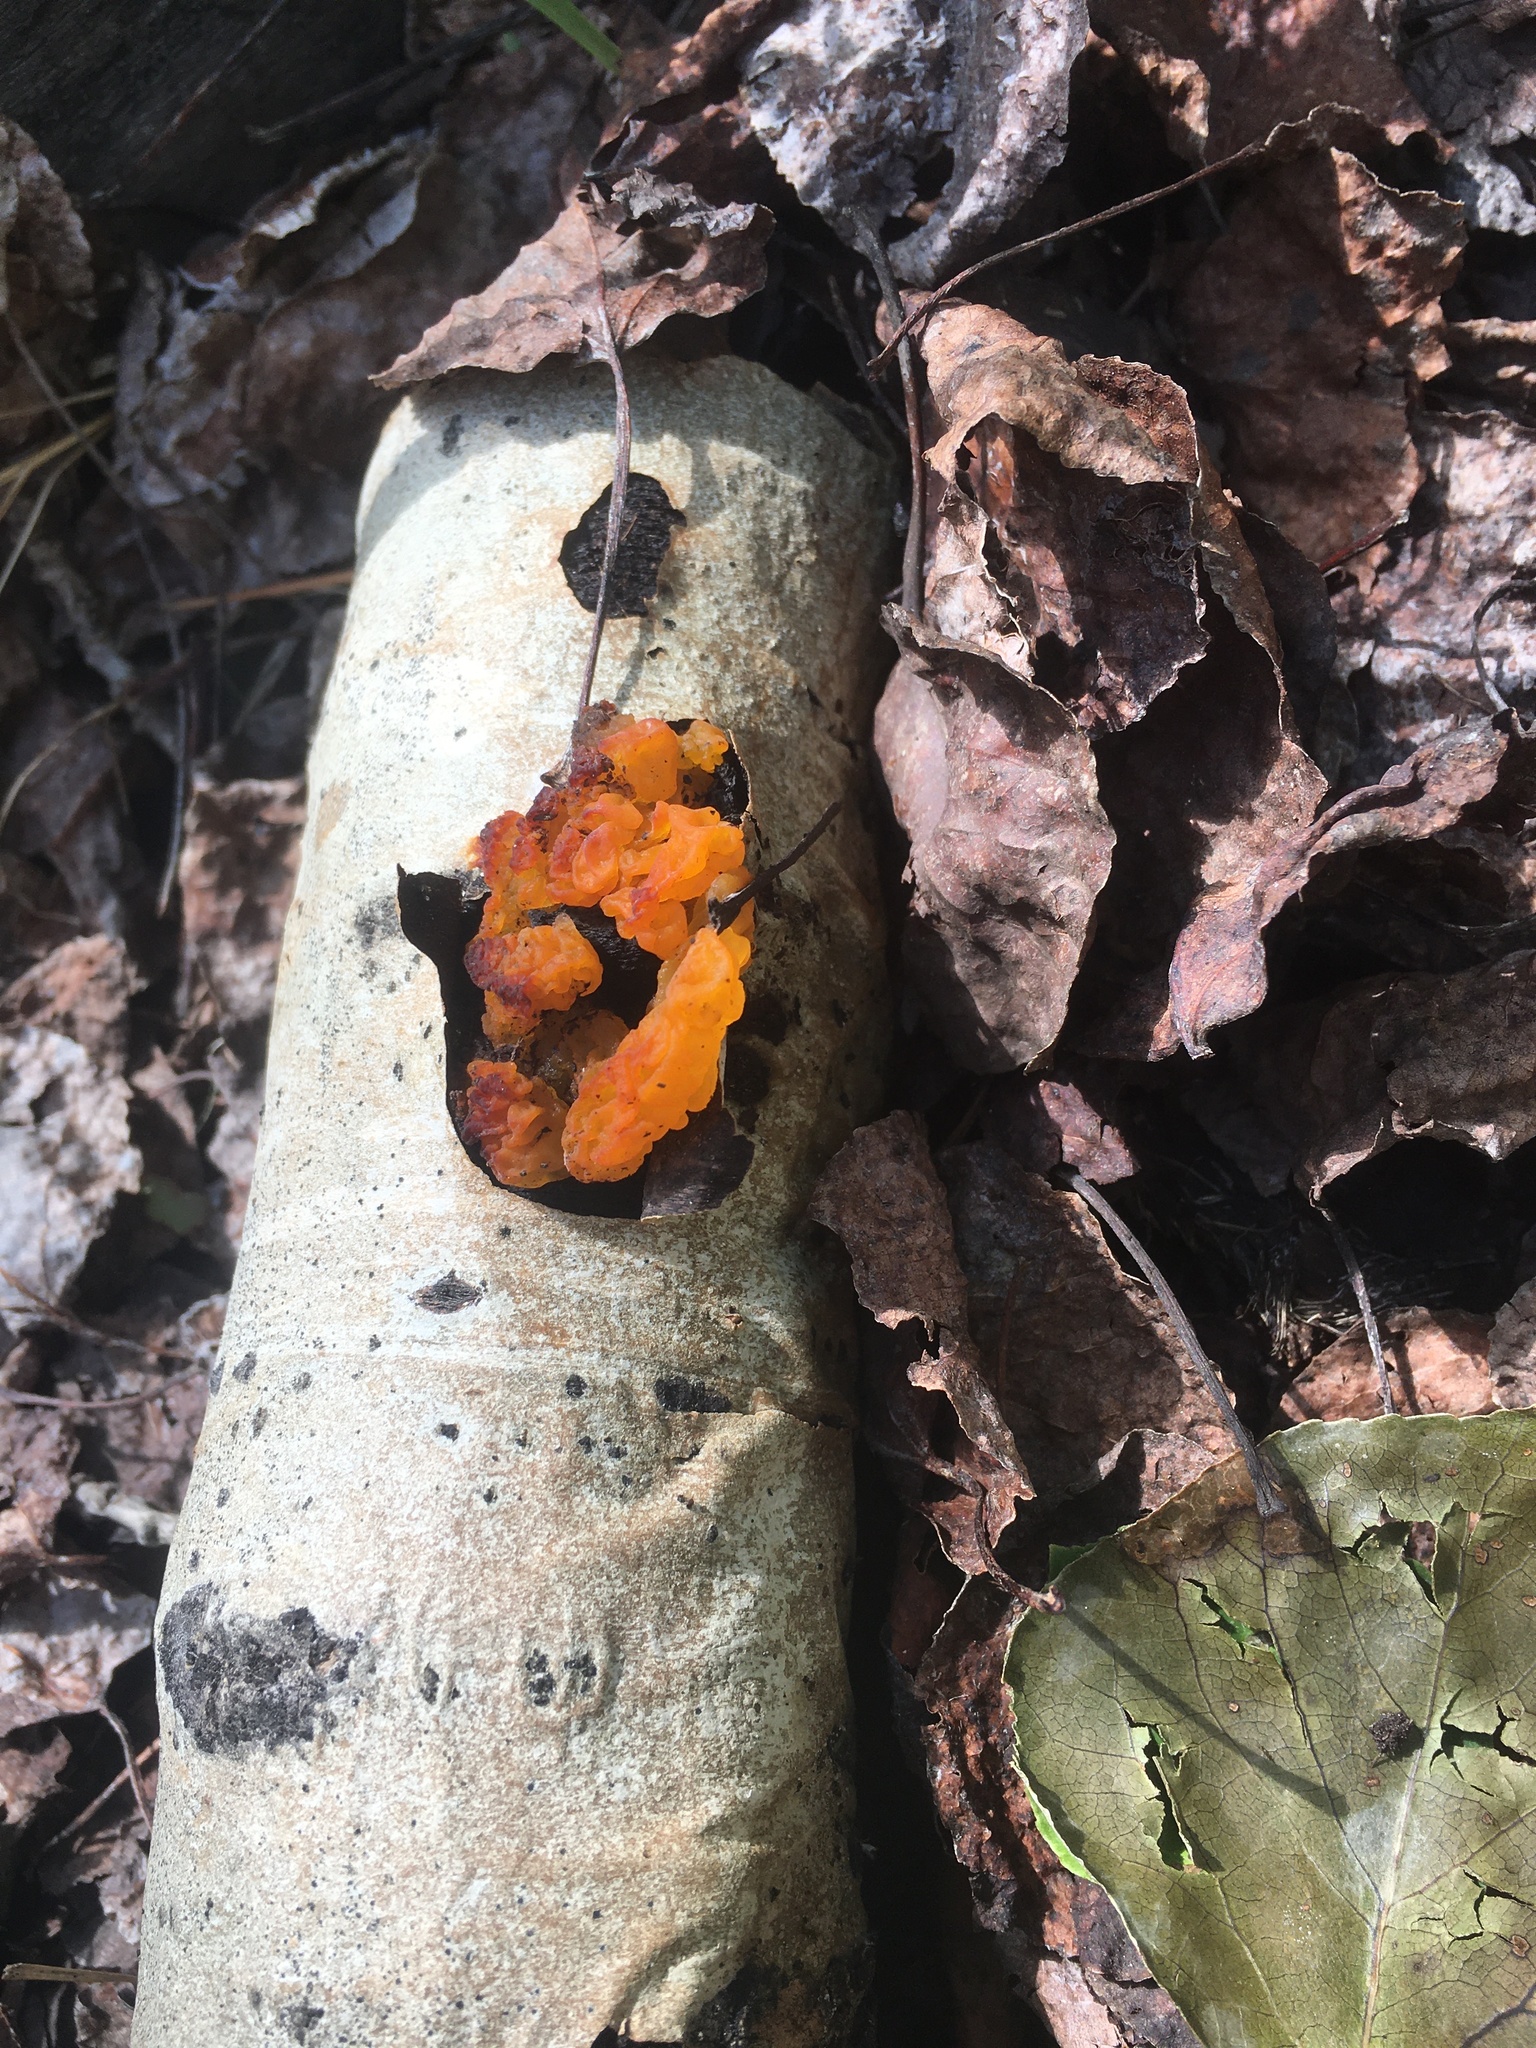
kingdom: Fungi
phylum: Basidiomycota
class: Tremellomycetes
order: Tremellales
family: Tremellaceae
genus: Tremella
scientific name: Tremella mesenterica
